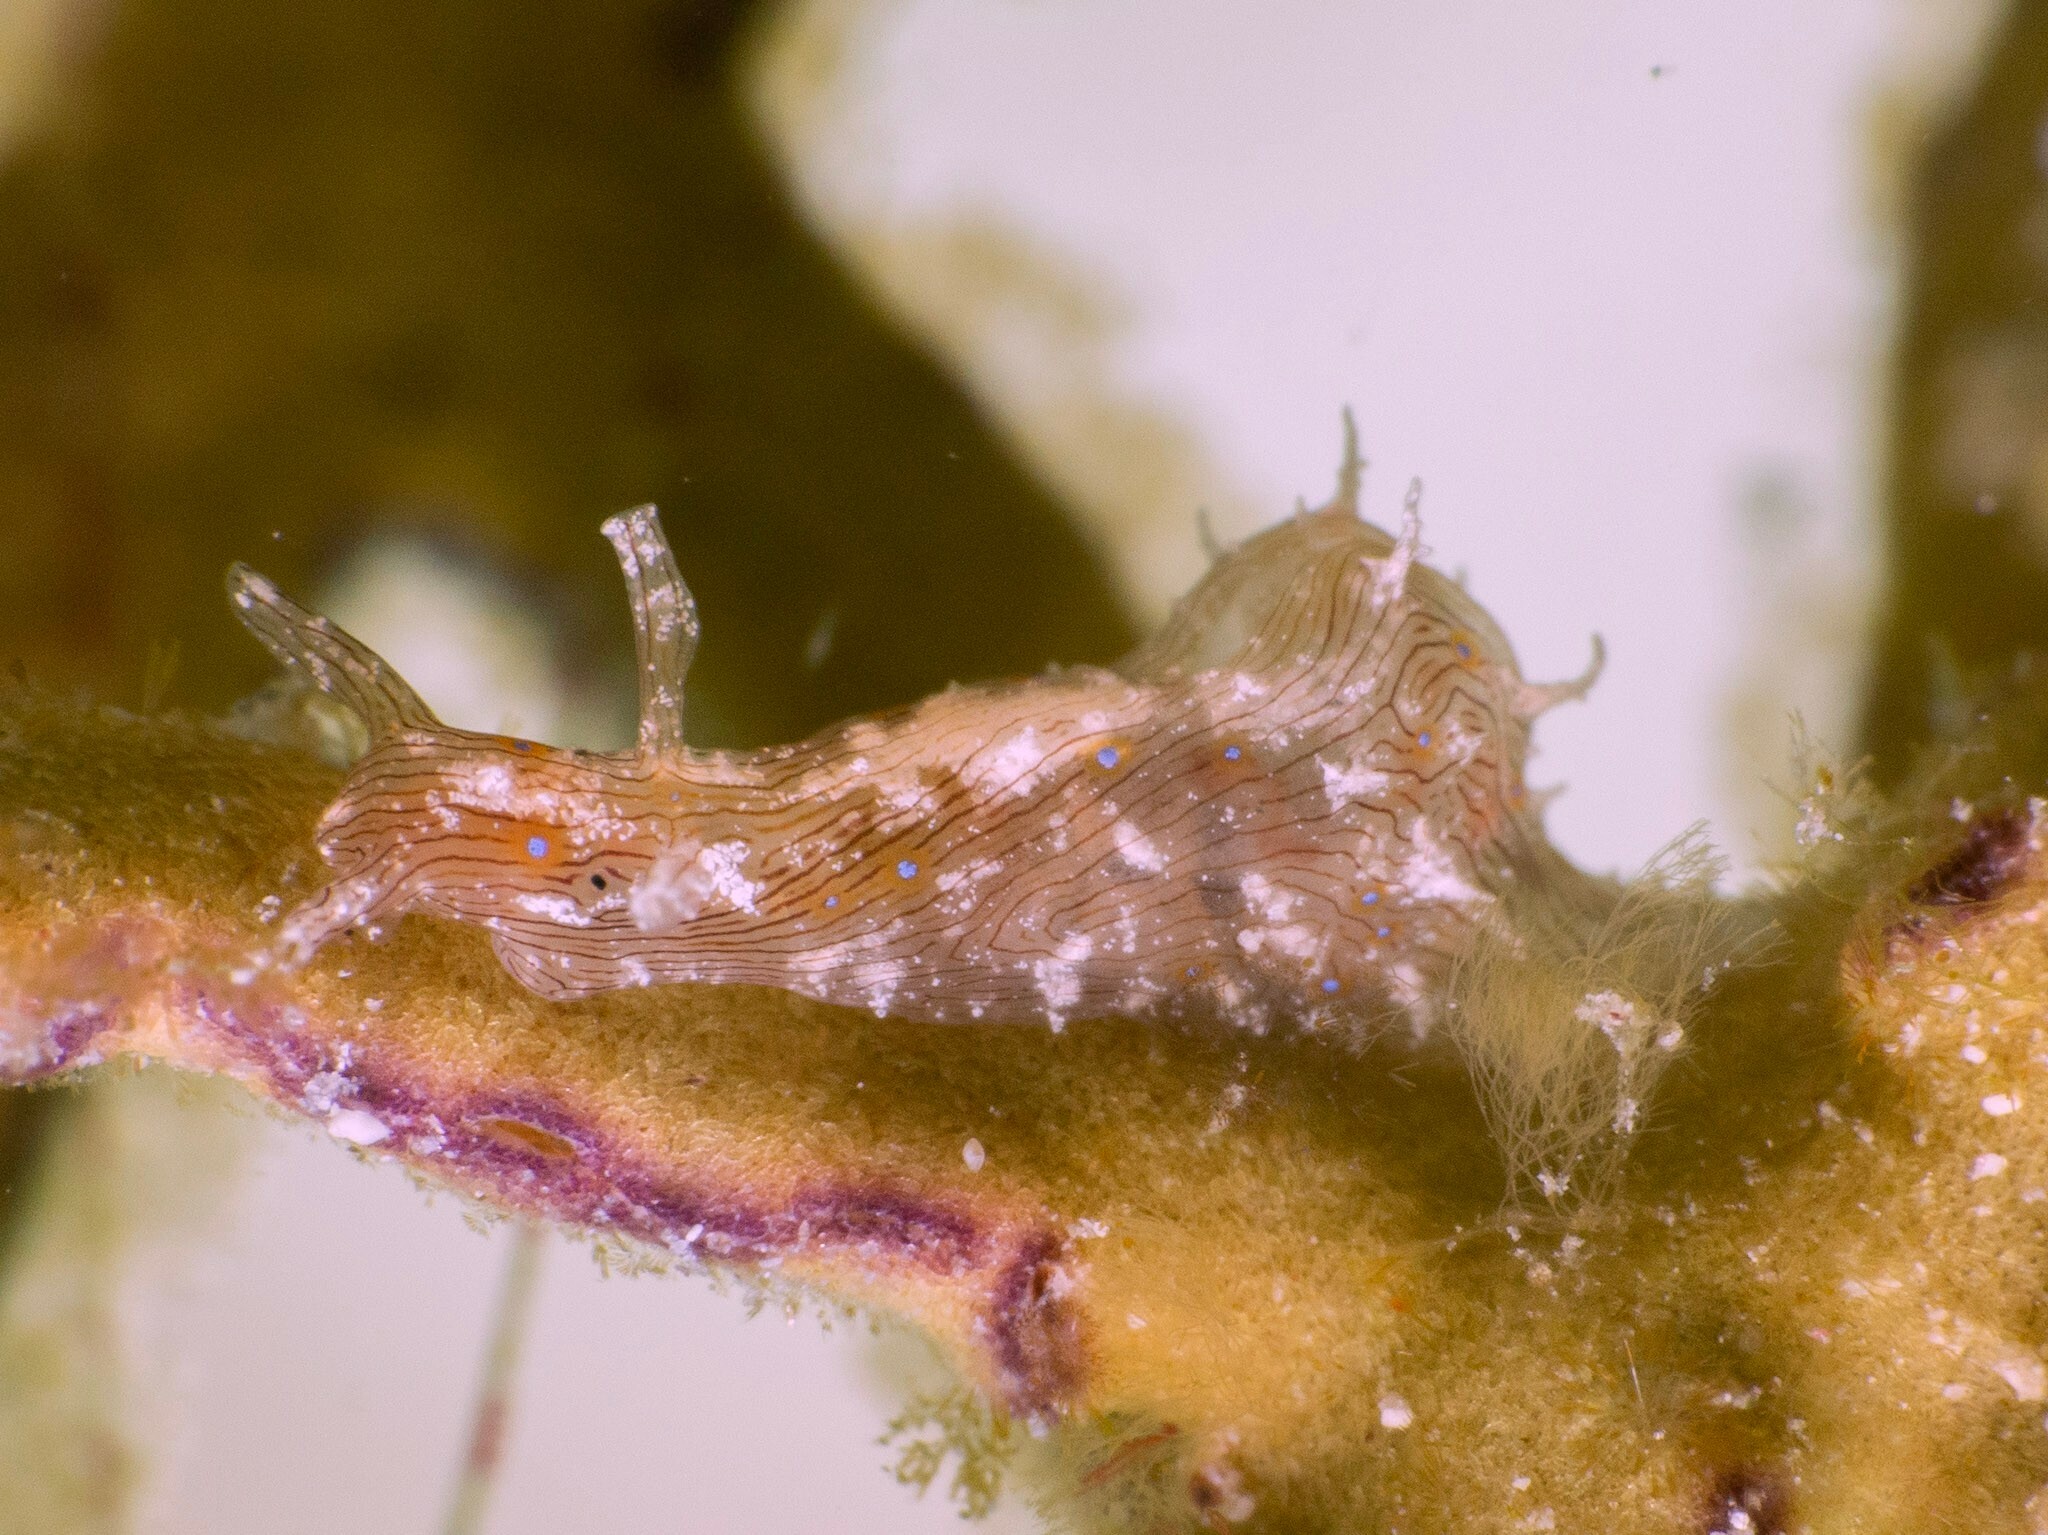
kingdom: Animalia
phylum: Mollusca
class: Gastropoda
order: Aplysiida
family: Aplysiidae
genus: Stylocheilus
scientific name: Stylocheilus polyomma
